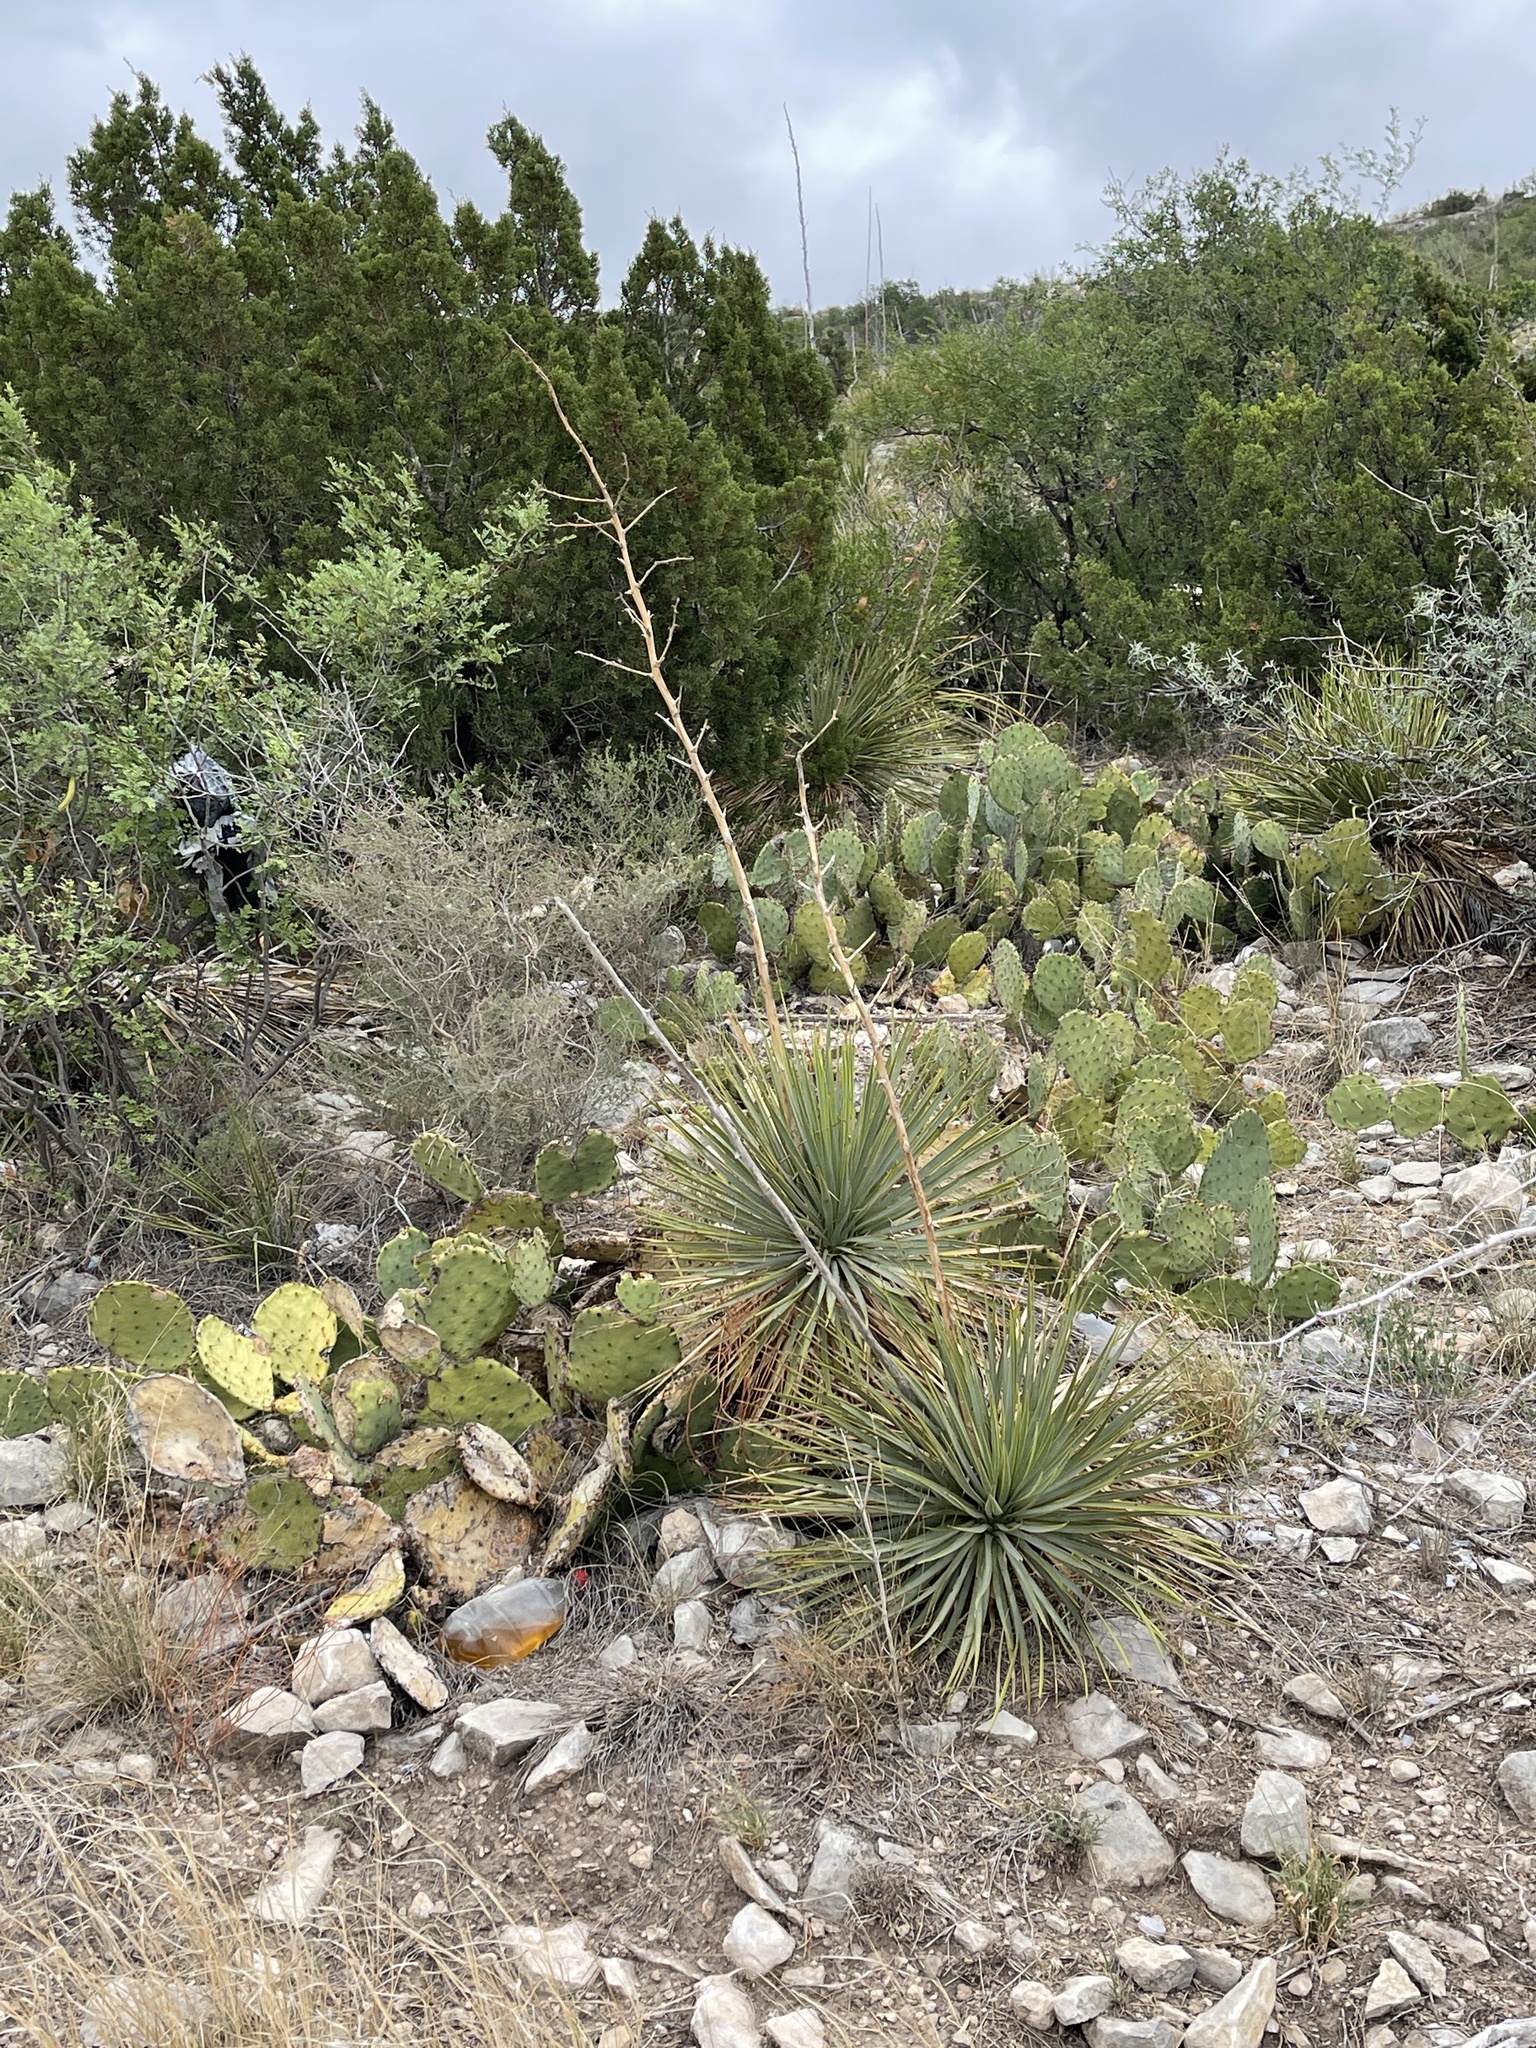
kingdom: Plantae
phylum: Tracheophyta
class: Liliopsida
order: Asparagales
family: Asparagaceae
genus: Yucca
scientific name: Yucca thompsoniana
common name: Trans-pecos yucca
